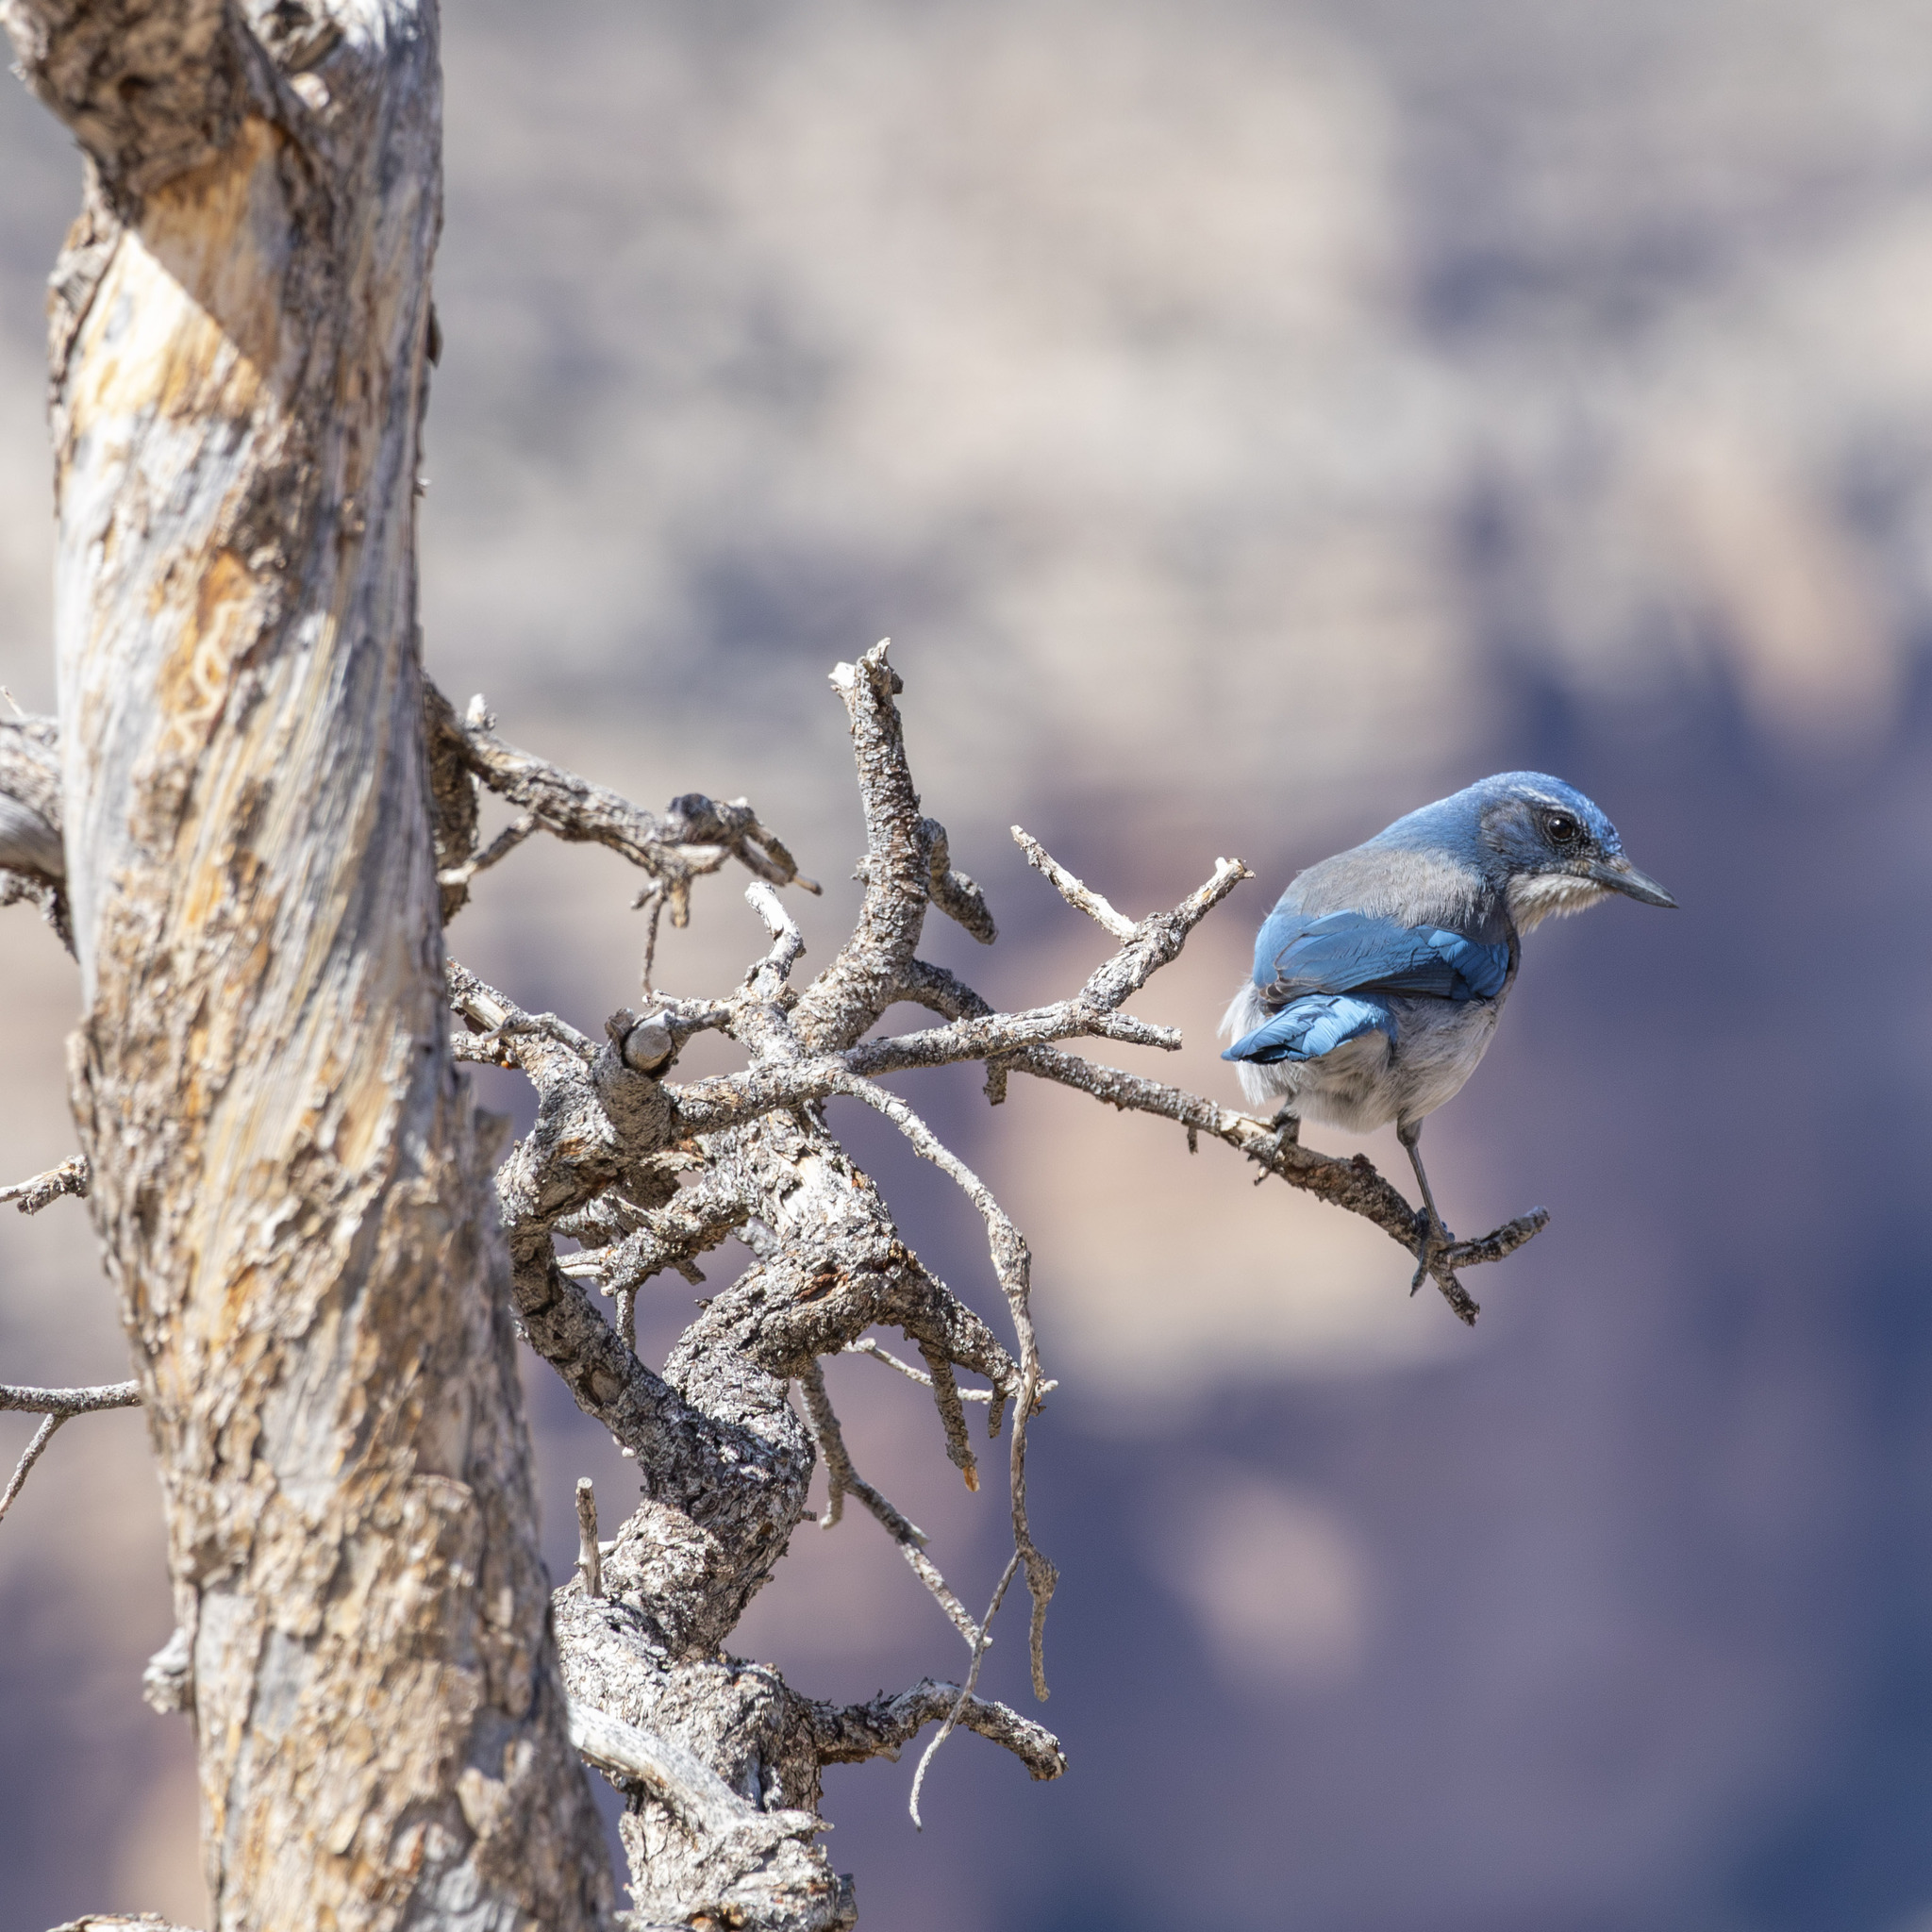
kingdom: Animalia
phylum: Chordata
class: Aves
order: Passeriformes
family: Corvidae
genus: Aphelocoma
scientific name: Aphelocoma woodhouseii
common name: Woodhouse's scrub-jay
